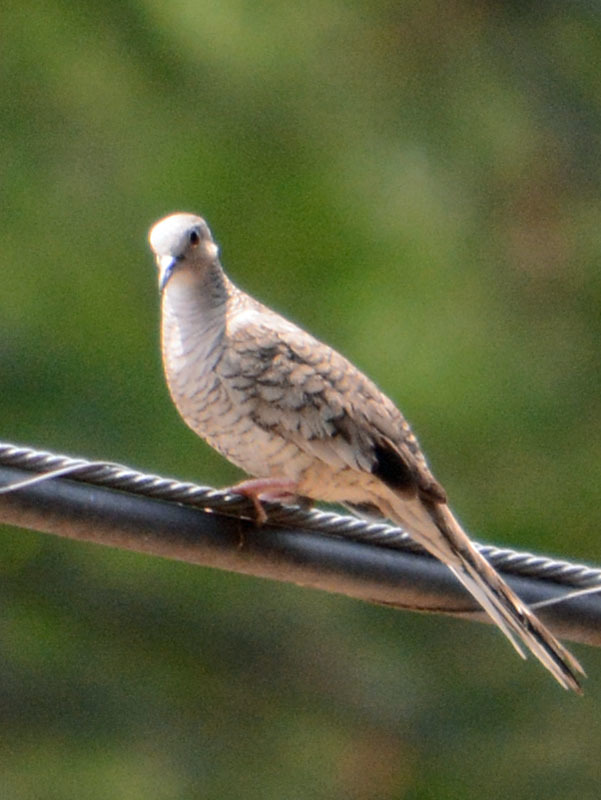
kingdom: Animalia
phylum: Chordata
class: Aves
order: Columbiformes
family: Columbidae
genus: Columbina
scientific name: Columbina inca
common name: Inca dove
